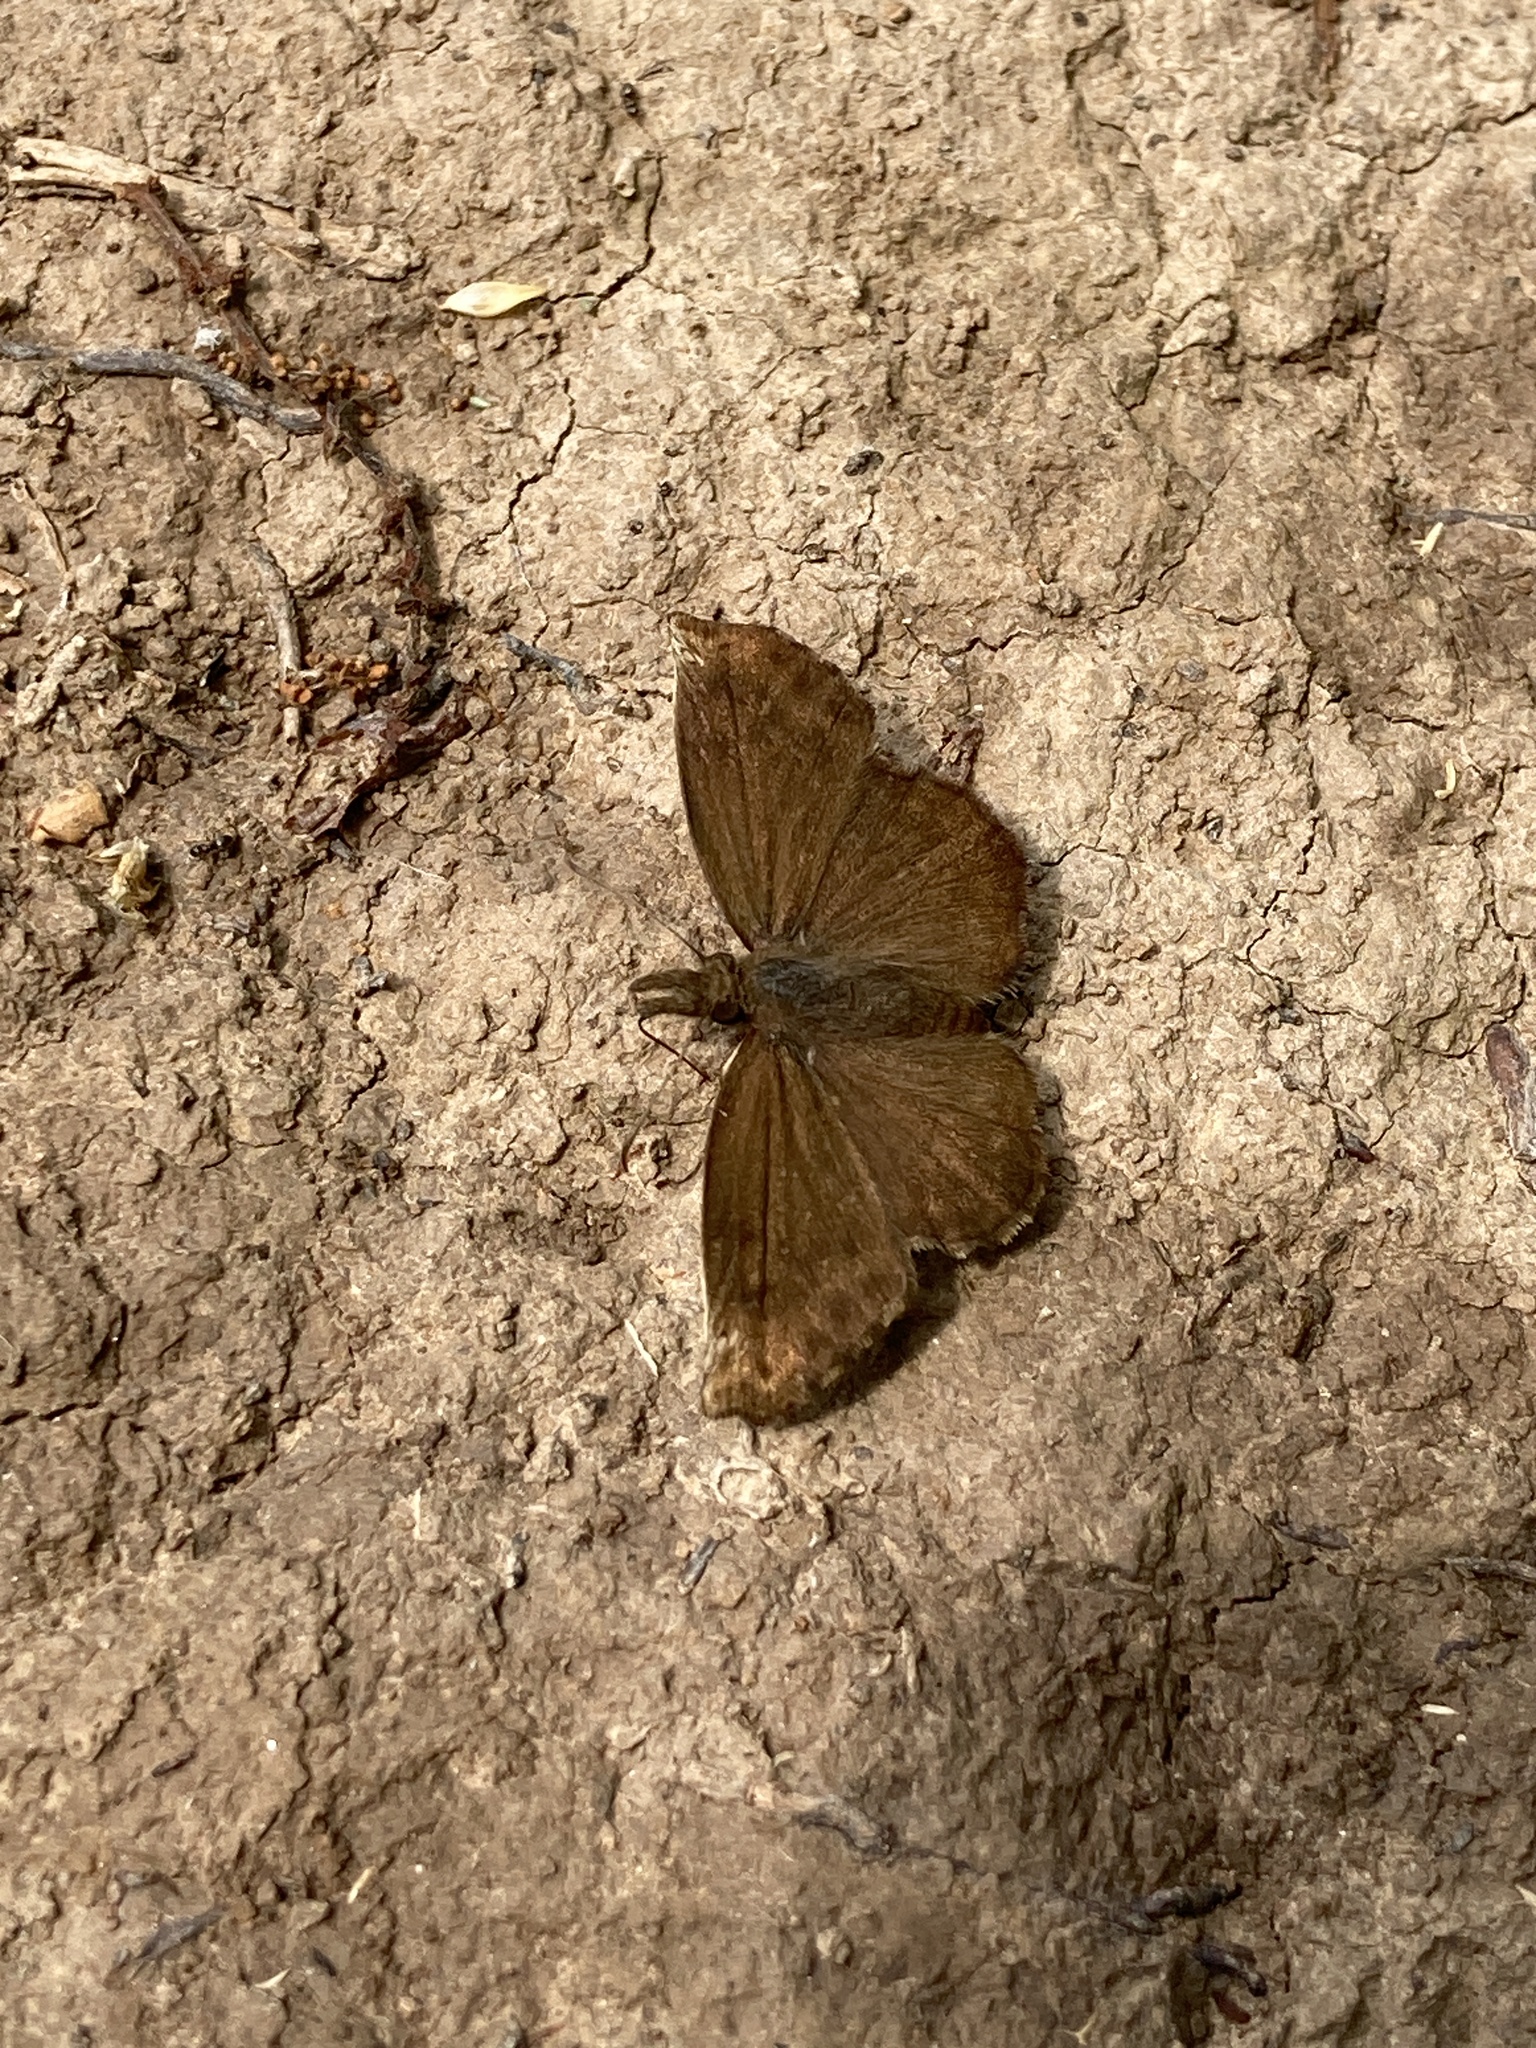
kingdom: Animalia
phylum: Arthropoda
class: Insecta
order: Lepidoptera
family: Hesperiidae
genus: Anisochoria
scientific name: Anisochoria sublimbata
